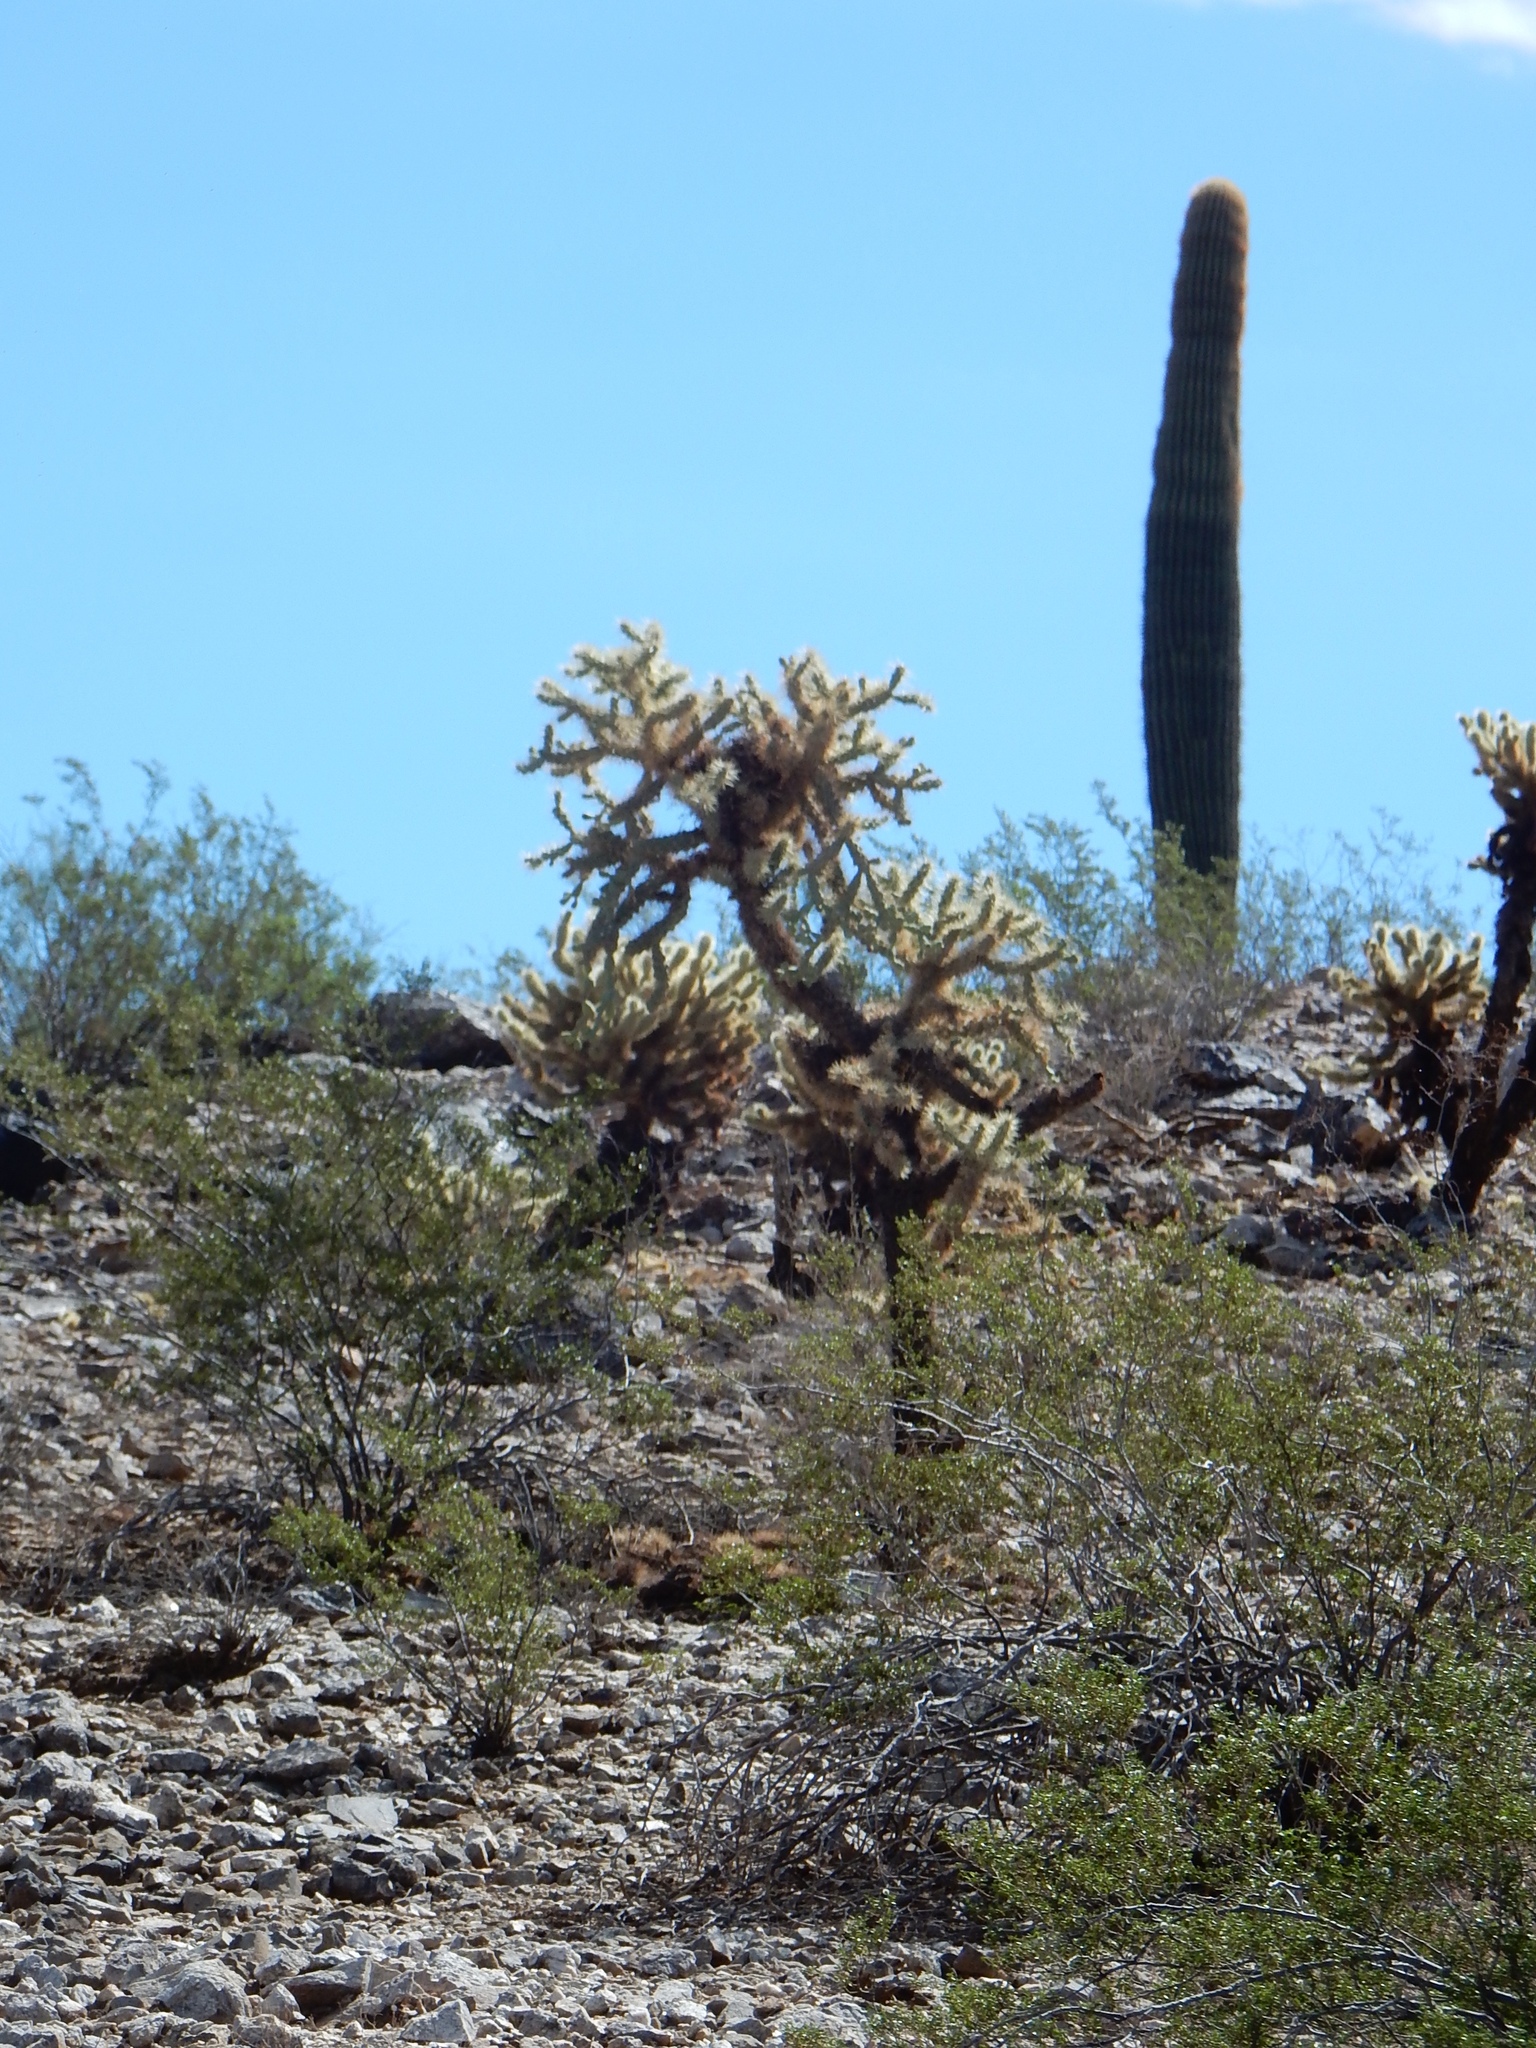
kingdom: Plantae
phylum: Tracheophyta
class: Magnoliopsida
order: Caryophyllales
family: Cactaceae
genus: Cylindropuntia
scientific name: Cylindropuntia fulgida
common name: Jumping cholla
